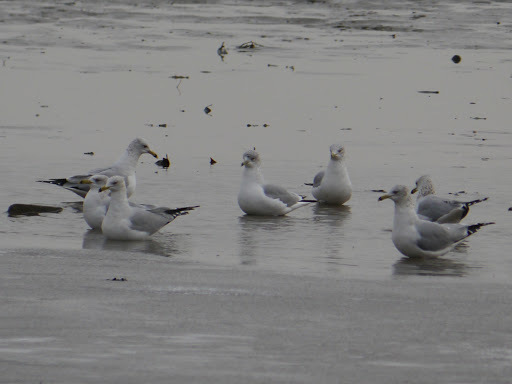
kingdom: Animalia
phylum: Chordata
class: Aves
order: Charadriiformes
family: Laridae
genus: Larus
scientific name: Larus delawarensis
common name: Ring-billed gull
